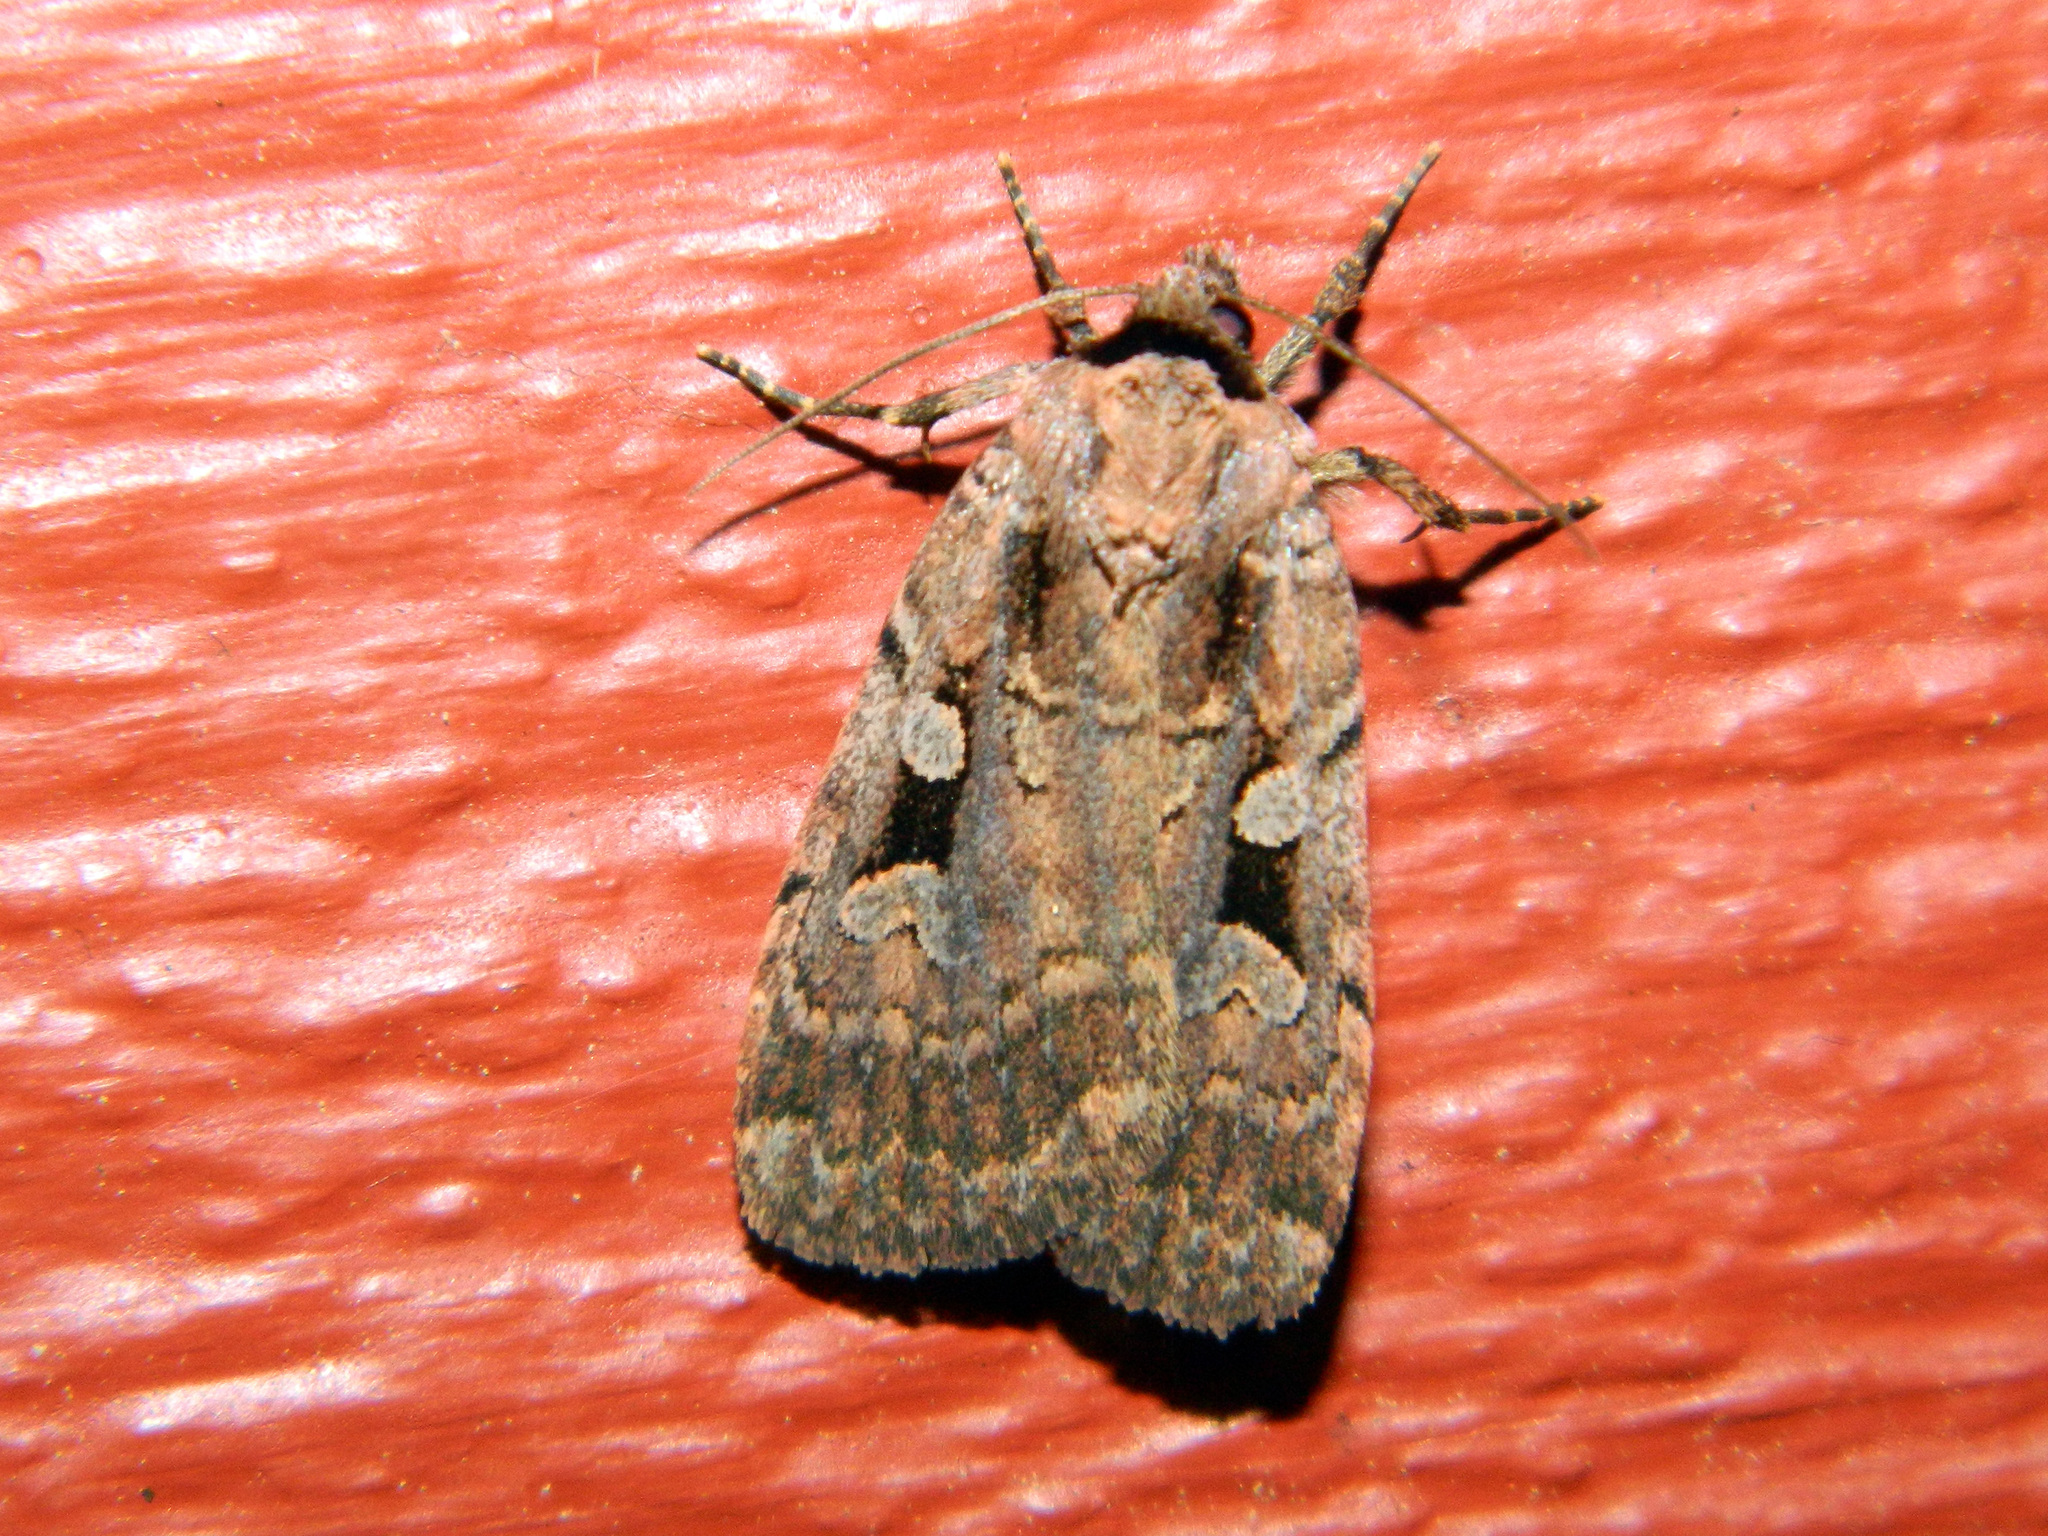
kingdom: Animalia
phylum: Arthropoda
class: Insecta
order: Lepidoptera
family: Noctuidae
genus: Eueretagrotis
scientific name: Eueretagrotis perattentus
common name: Two-spot dart moth
